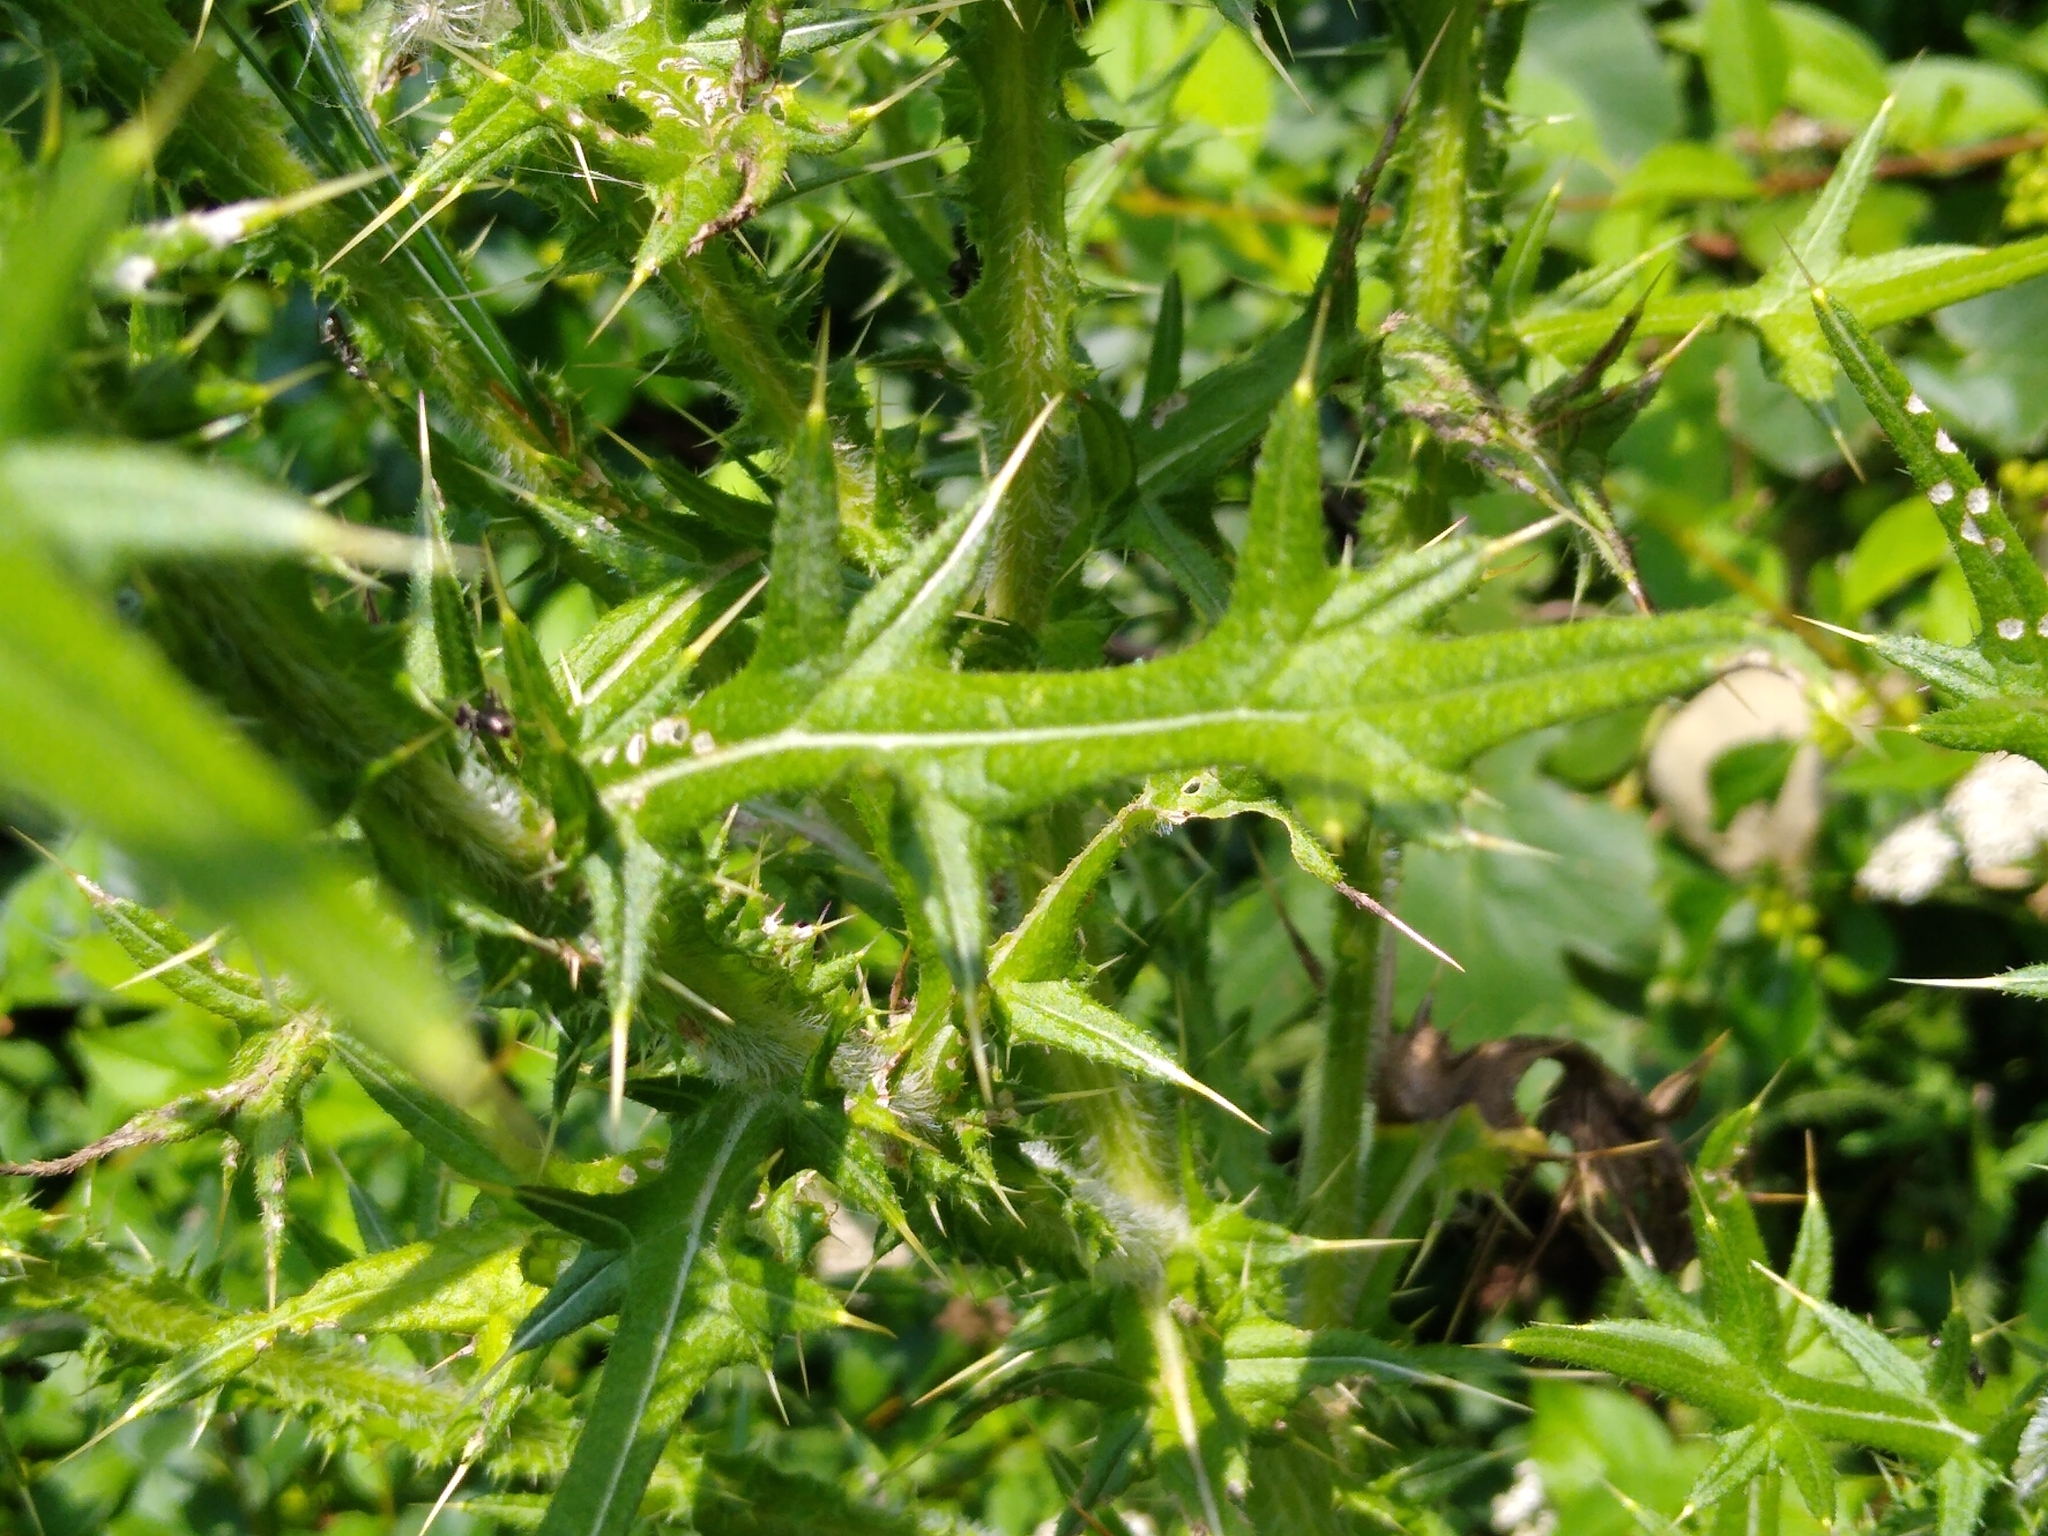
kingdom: Plantae
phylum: Tracheophyta
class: Magnoliopsida
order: Asterales
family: Asteraceae
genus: Cirsium
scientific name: Cirsium vulgare
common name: Bull thistle
